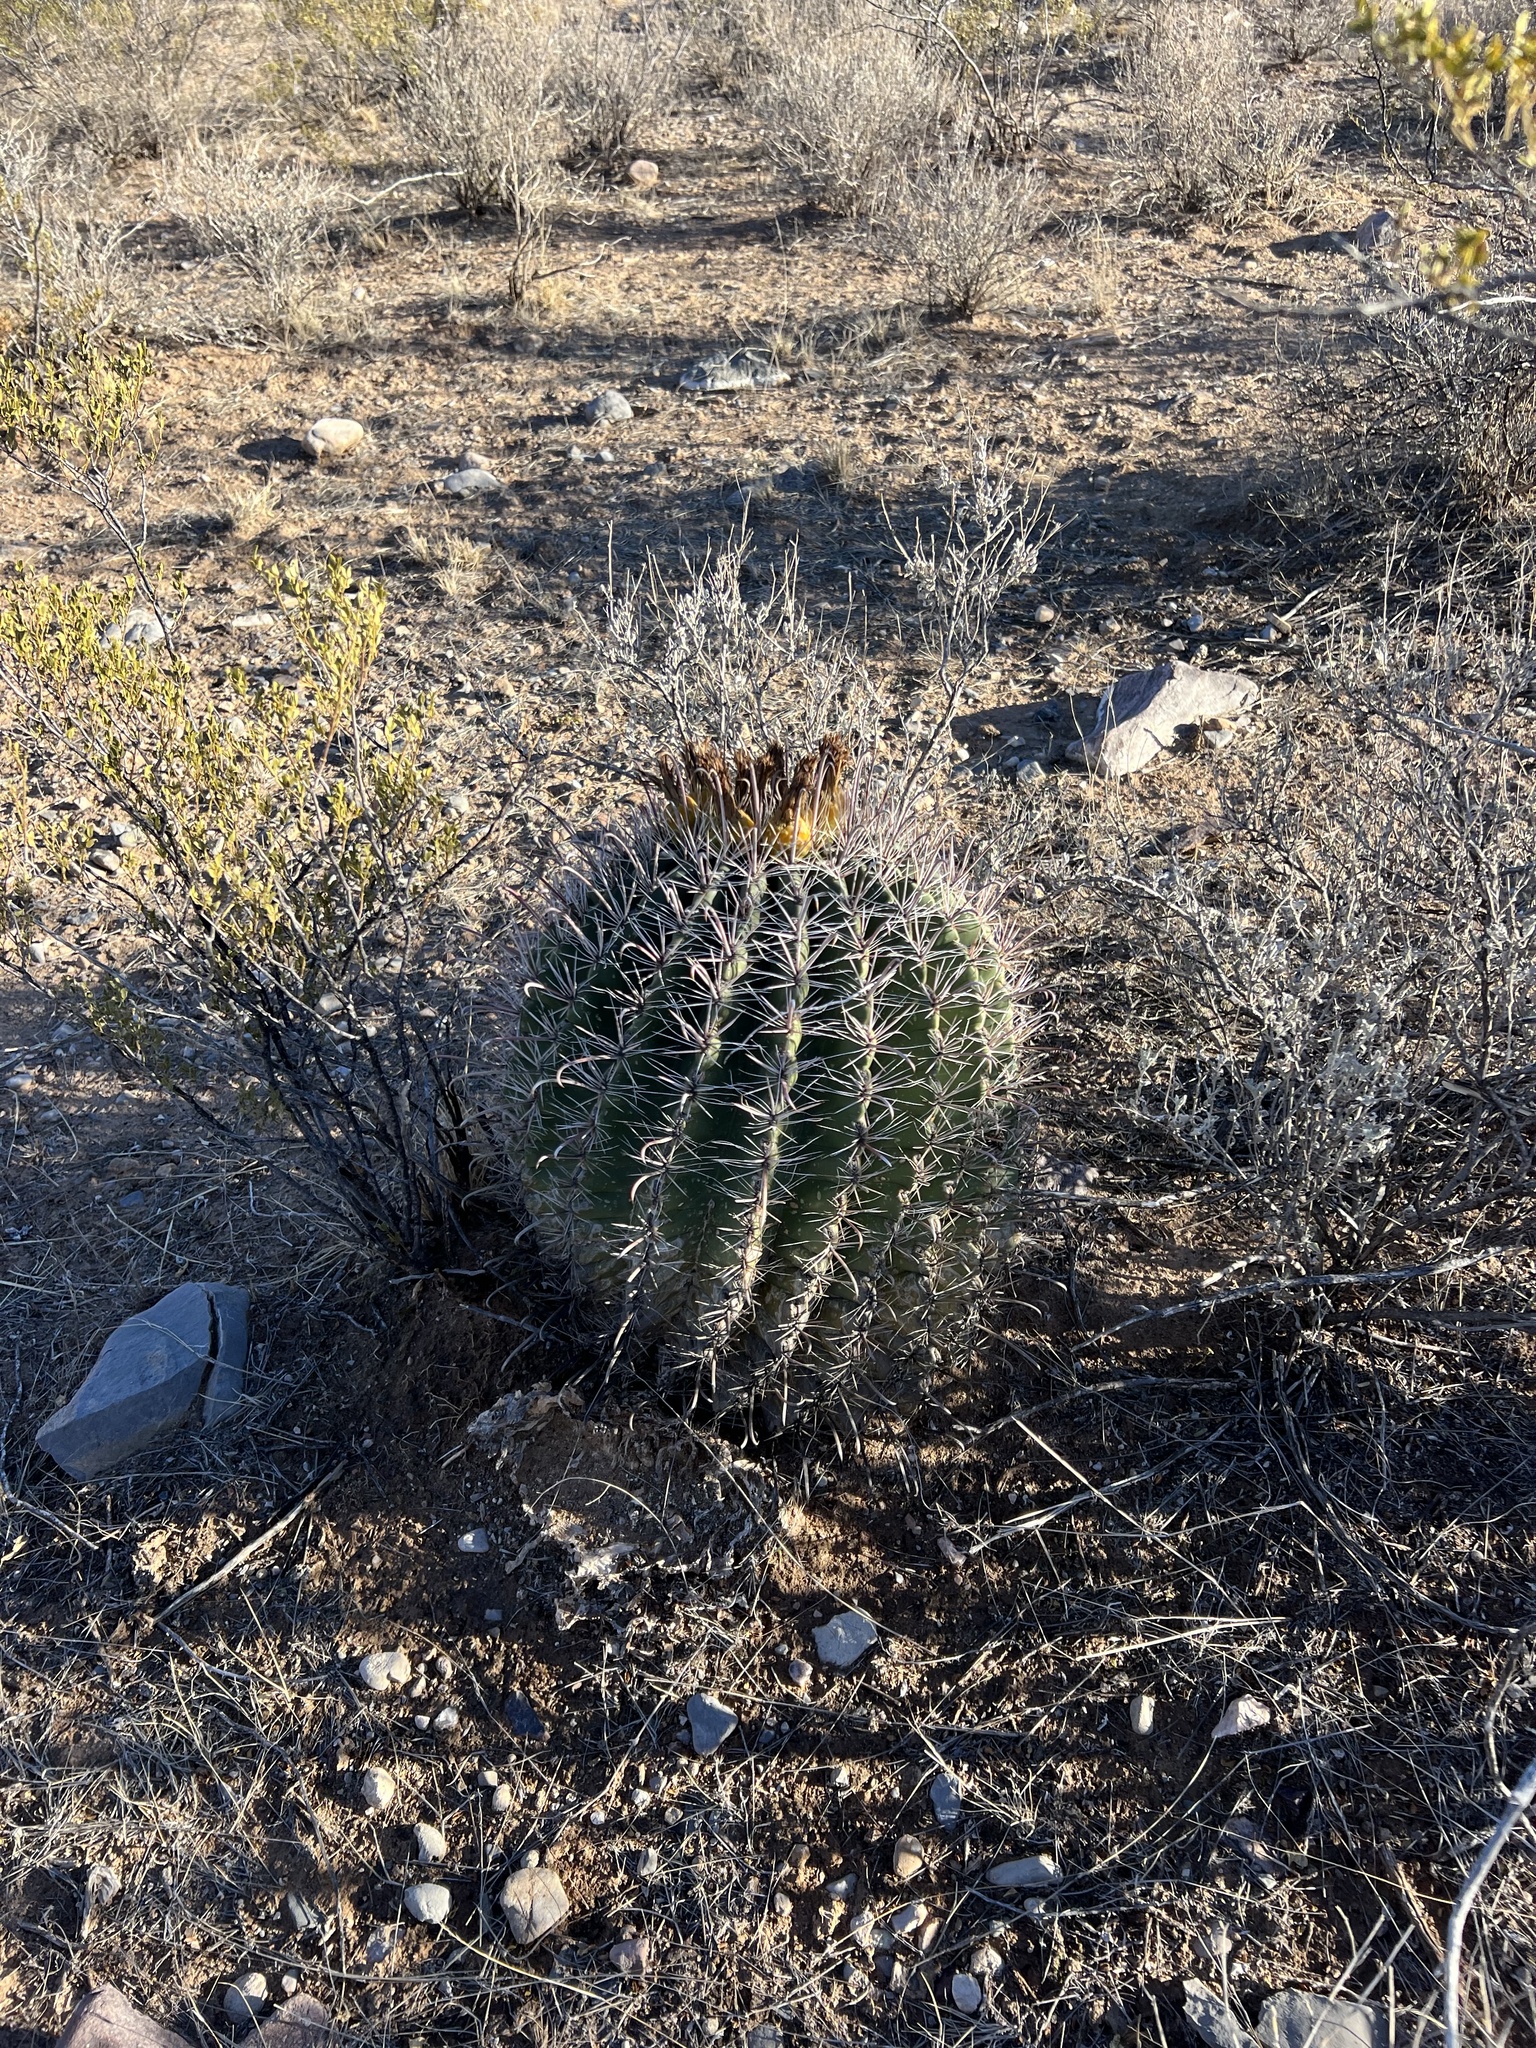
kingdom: Plantae
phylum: Tracheophyta
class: Magnoliopsida
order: Caryophyllales
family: Cactaceae
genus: Ferocactus
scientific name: Ferocactus wislizeni
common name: Candy barrel cactus
